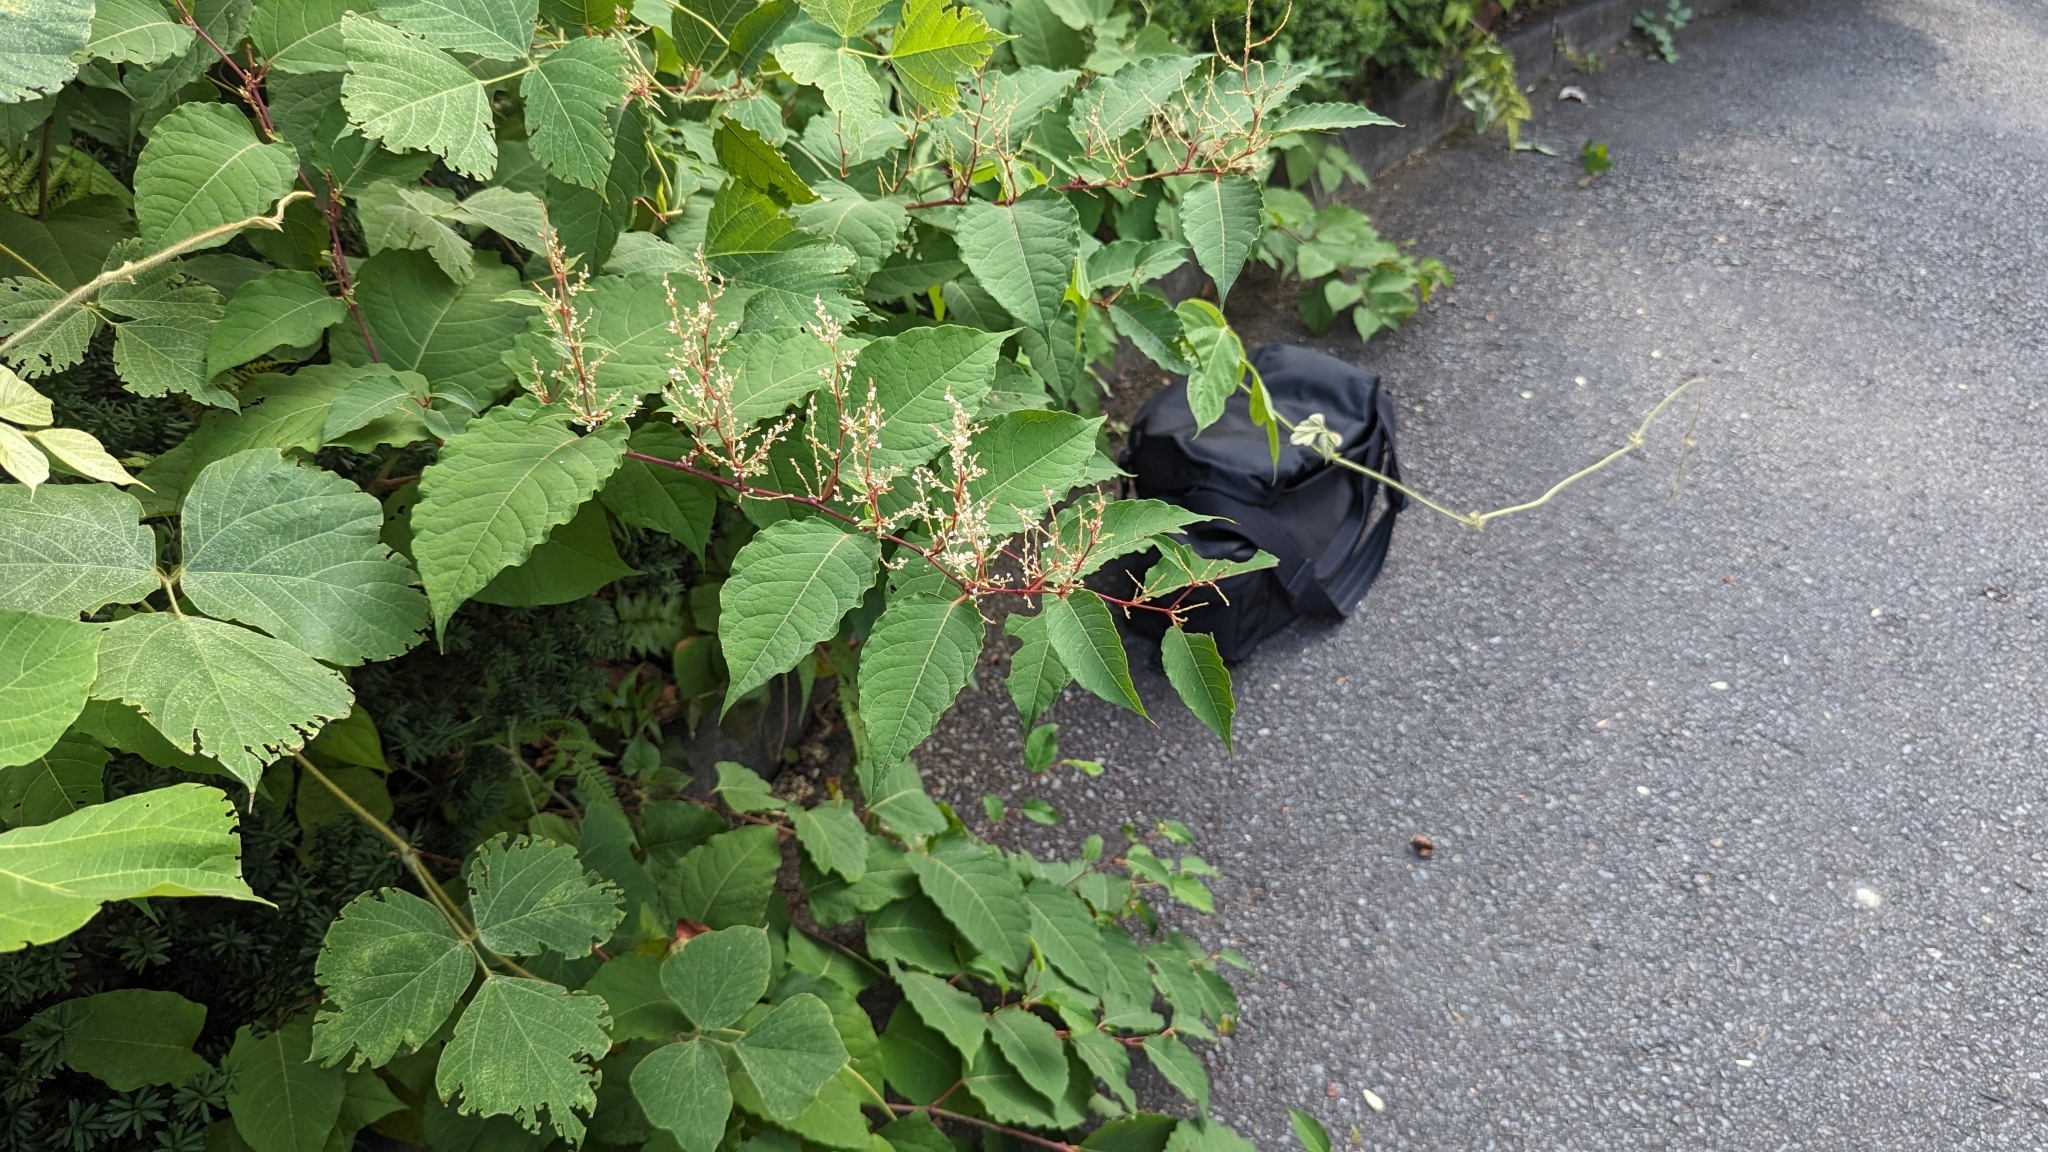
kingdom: Plantae
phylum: Tracheophyta
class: Magnoliopsida
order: Caryophyllales
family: Polygonaceae
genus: Reynoutria
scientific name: Reynoutria japonica
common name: Japanese knotweed
